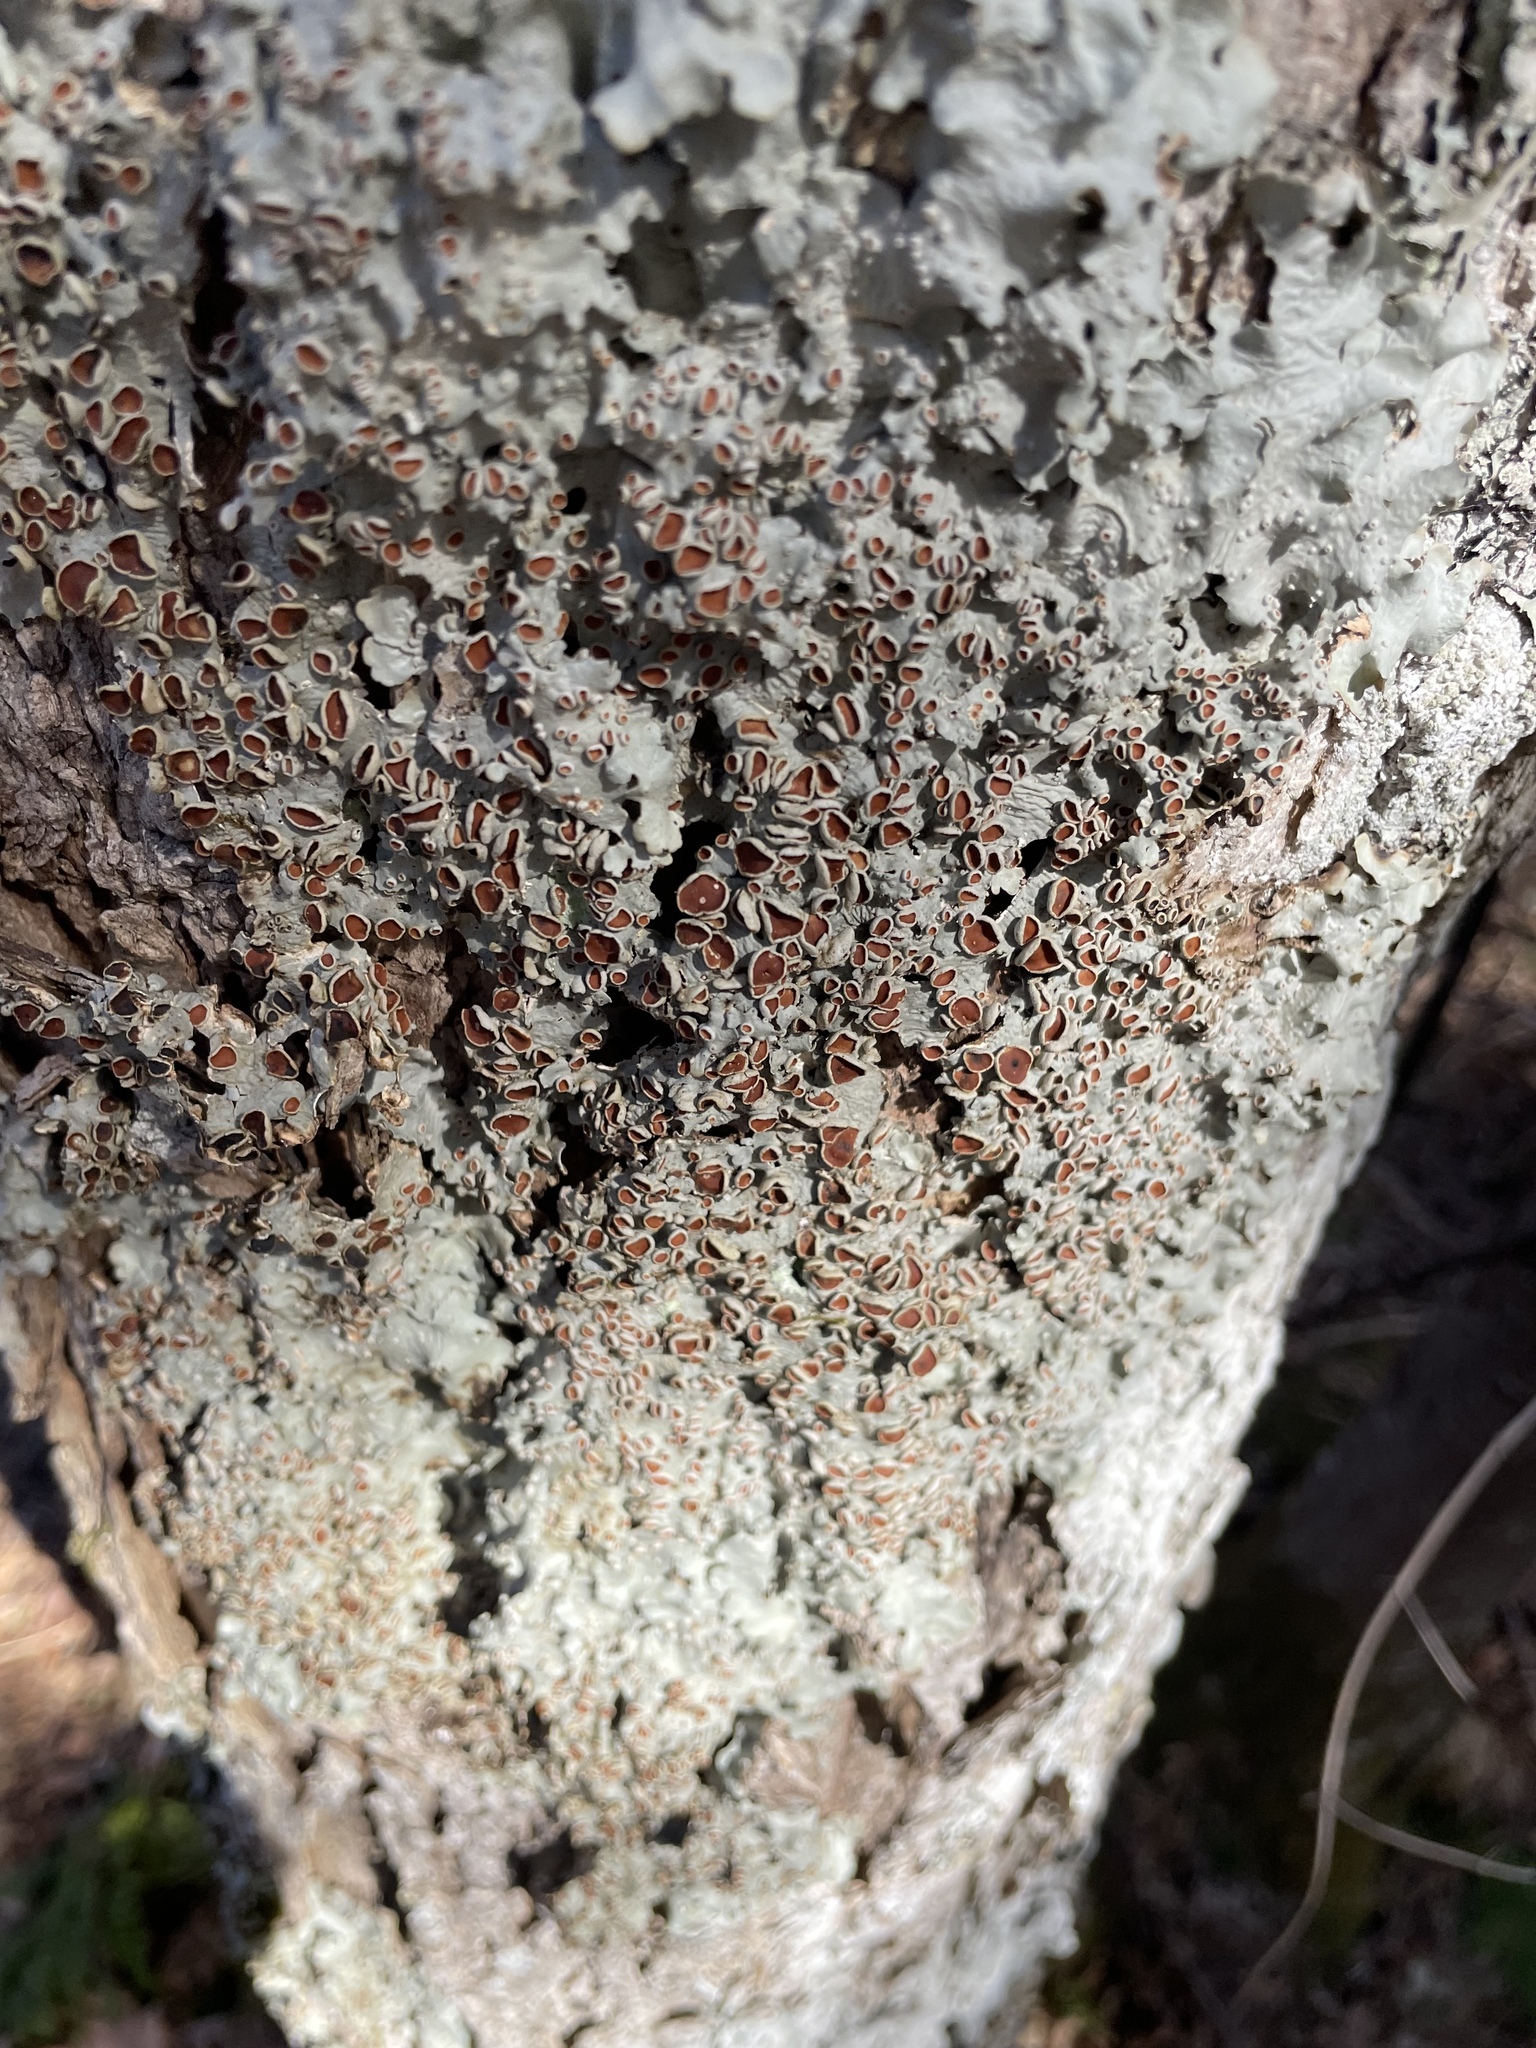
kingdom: Fungi
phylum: Ascomycota
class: Lecanoromycetes
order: Peltigerales
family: Lobariaceae
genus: Ricasolia
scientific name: Ricasolia quercizans
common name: Smooth lungwort
